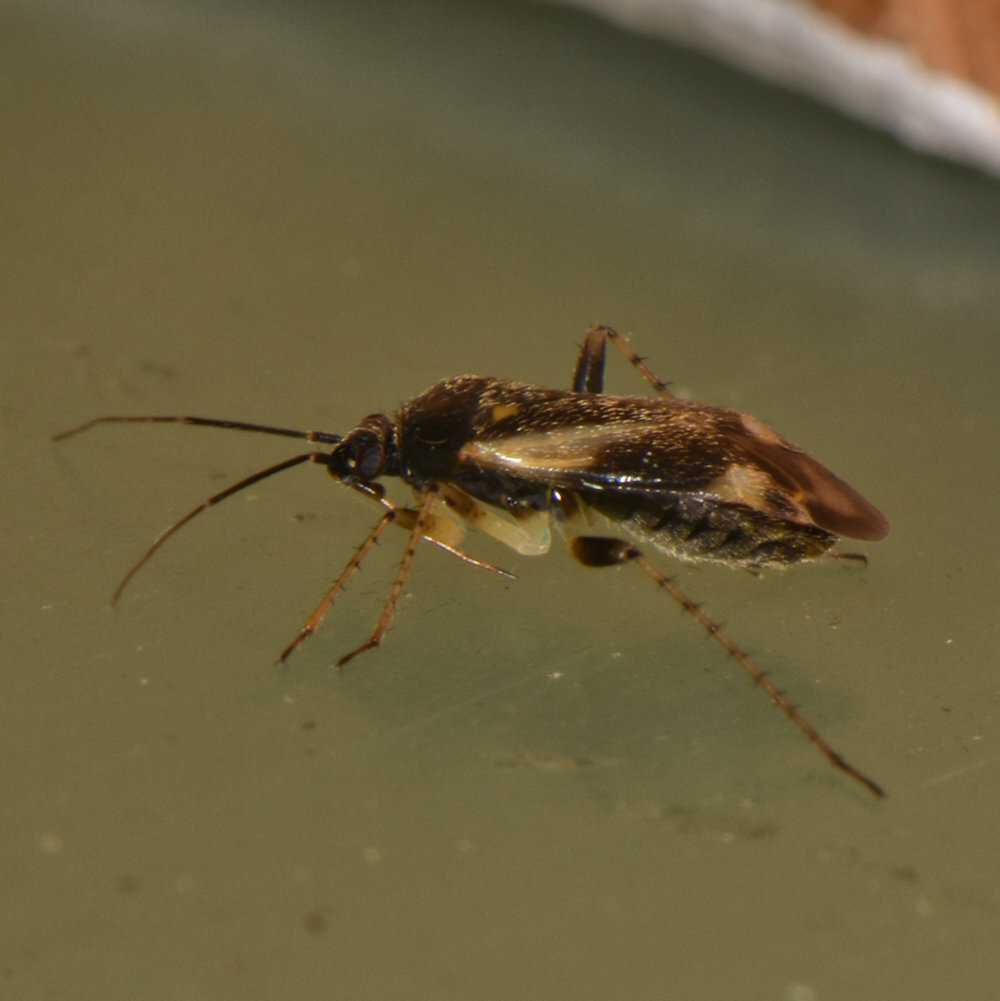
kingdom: Animalia
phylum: Arthropoda
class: Insecta
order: Hemiptera
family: Miridae
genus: Plagiognathus
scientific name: Plagiognathus obscurus
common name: Obscure plant bug
